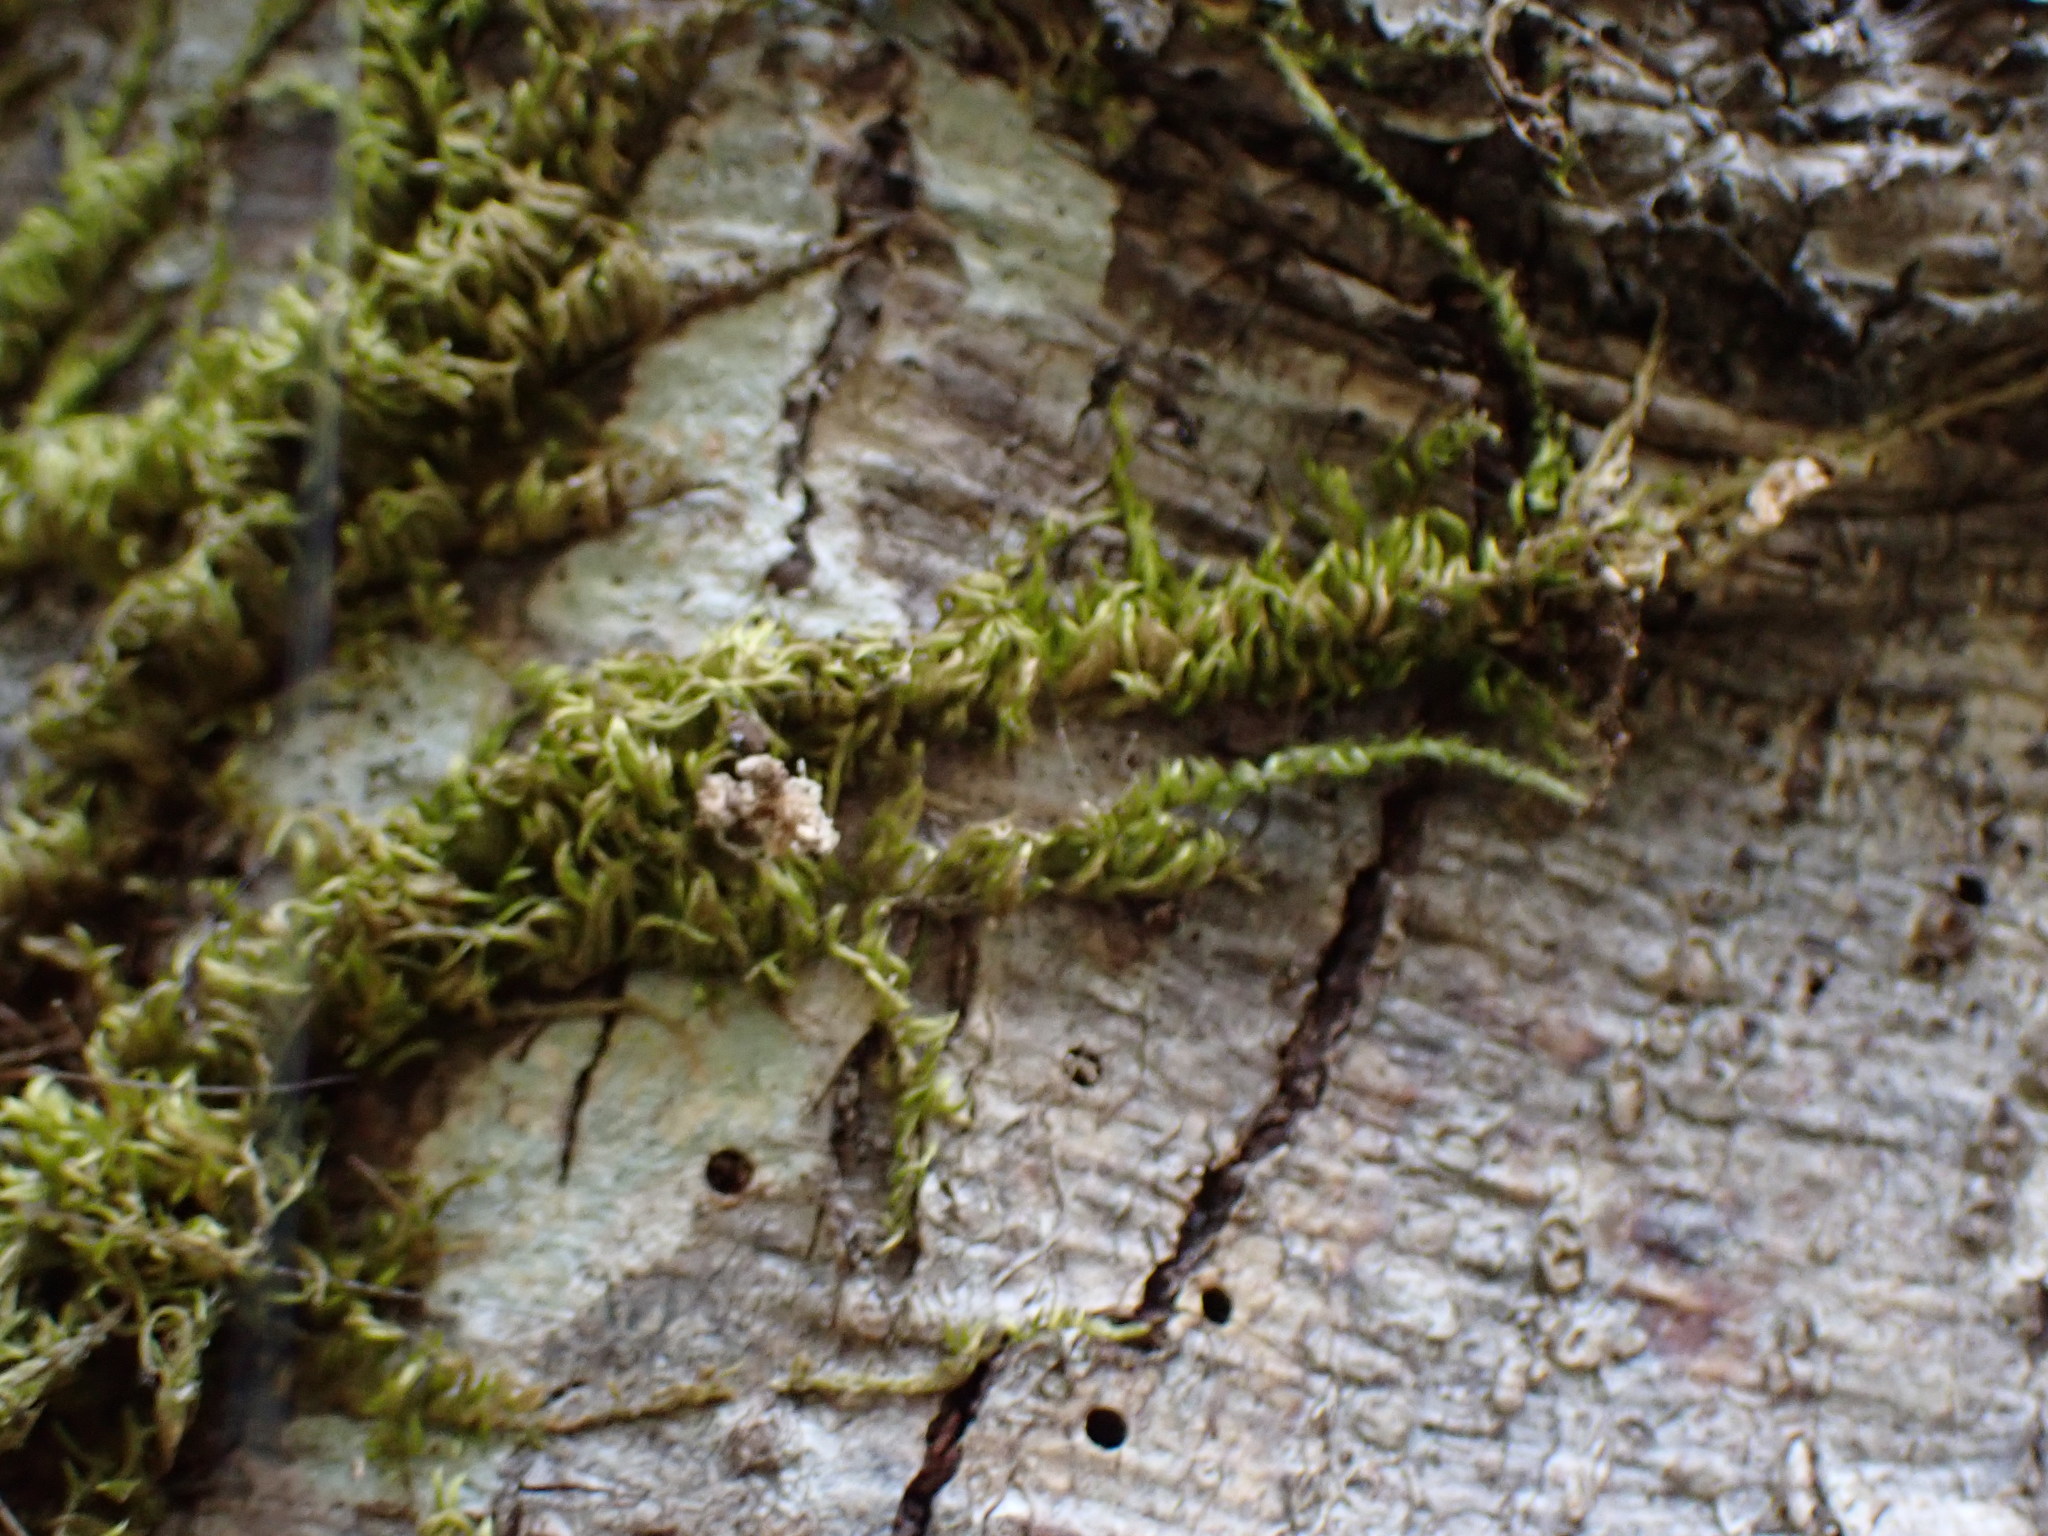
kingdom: Plantae
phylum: Bryophyta
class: Bryopsida
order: Hypnales
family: Brachytheciaceae
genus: Homalothecium
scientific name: Homalothecium nuttallii
